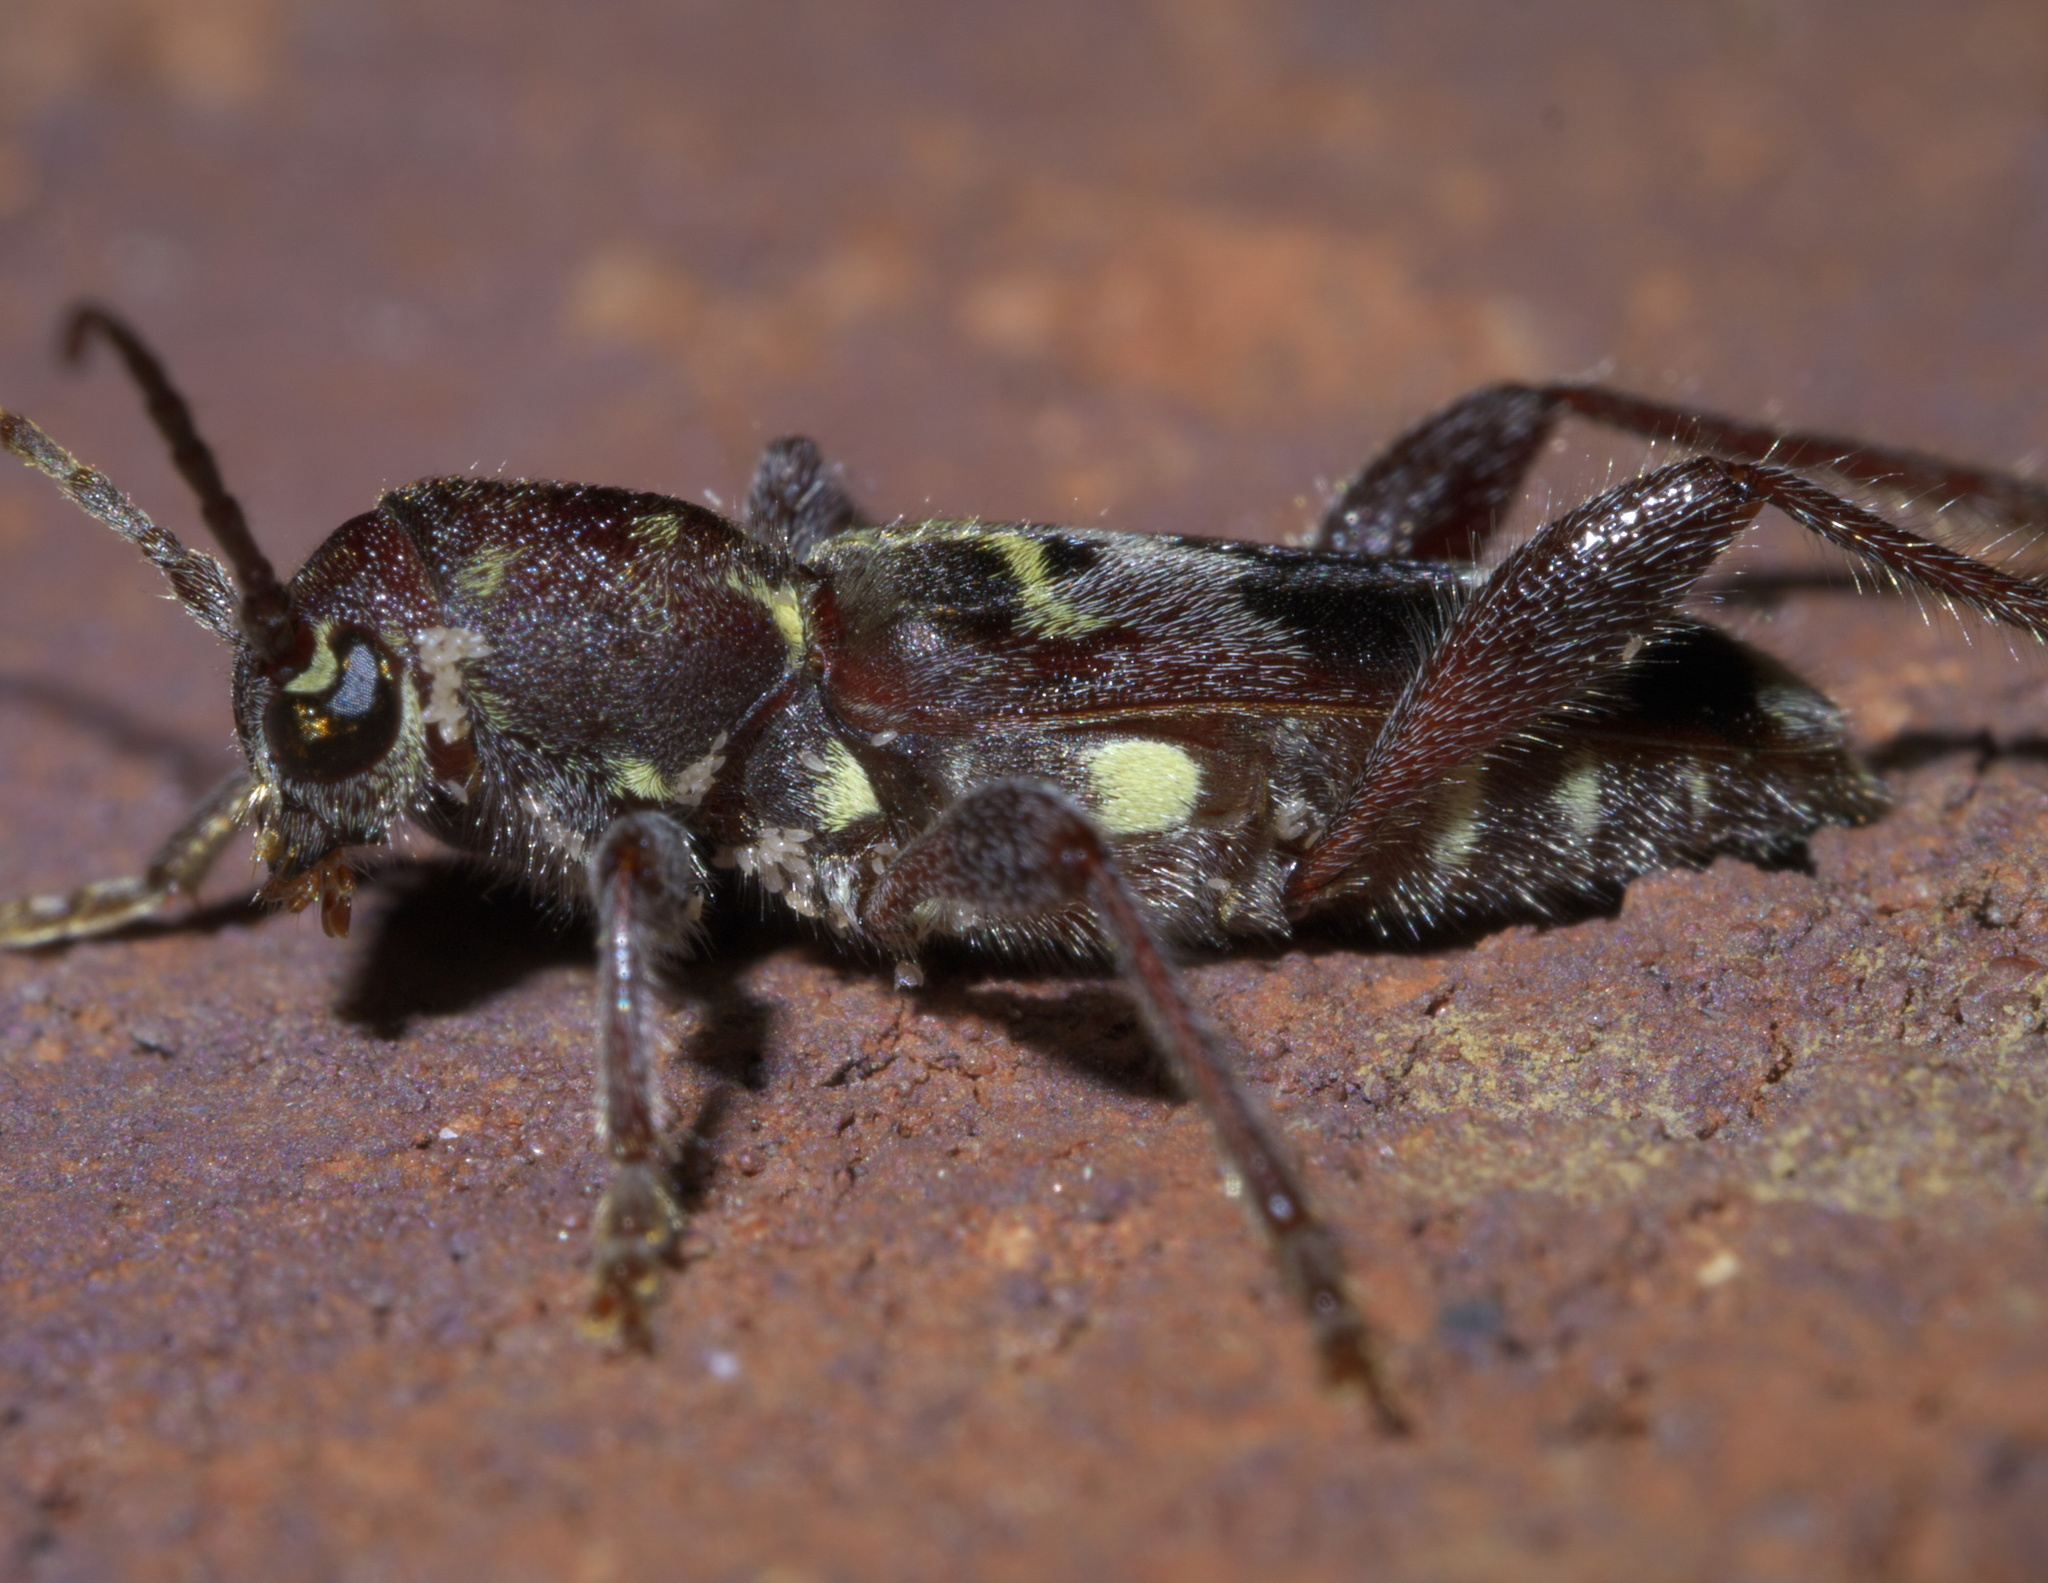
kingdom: Animalia
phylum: Arthropoda
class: Insecta
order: Coleoptera
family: Cerambycidae
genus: Xylotrechus
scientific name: Xylotrechus colonus
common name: Long-horned beetle
